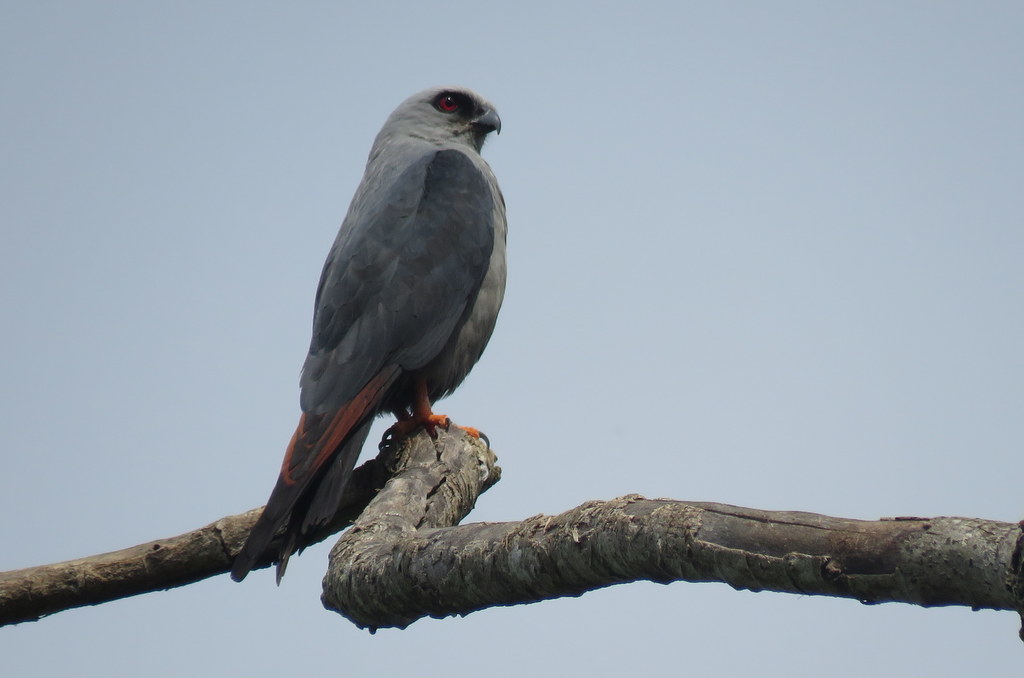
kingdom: Animalia
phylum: Chordata
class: Aves
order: Accipitriformes
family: Accipitridae
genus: Ictinia
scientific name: Ictinia plumbea
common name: Plumbeous kite
